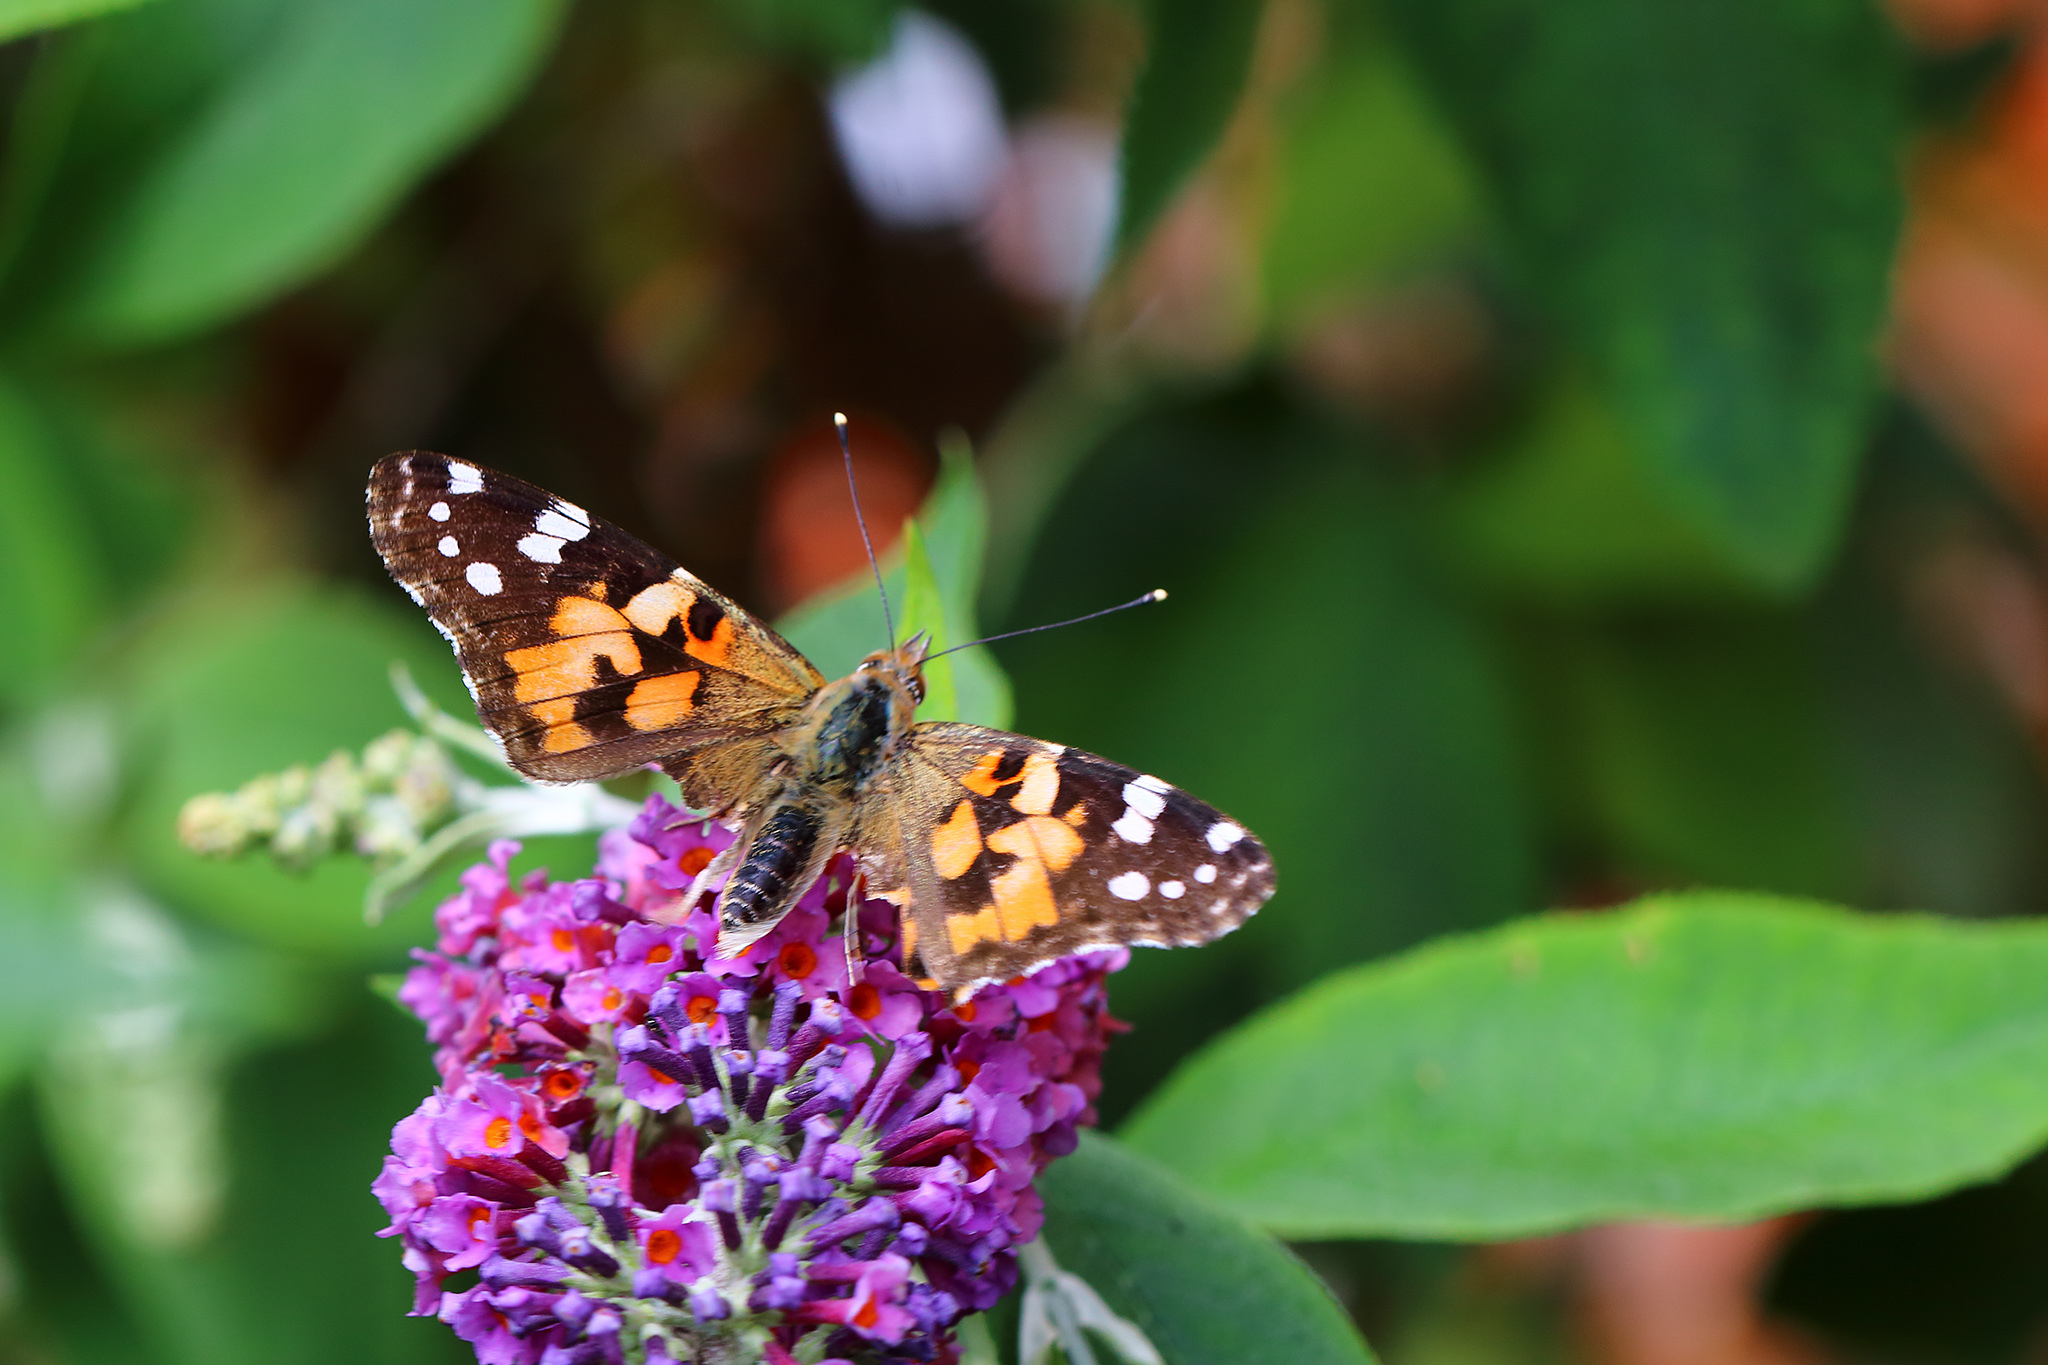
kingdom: Animalia
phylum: Arthropoda
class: Insecta
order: Lepidoptera
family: Nymphalidae
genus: Vanessa
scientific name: Vanessa cardui
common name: Painted lady
